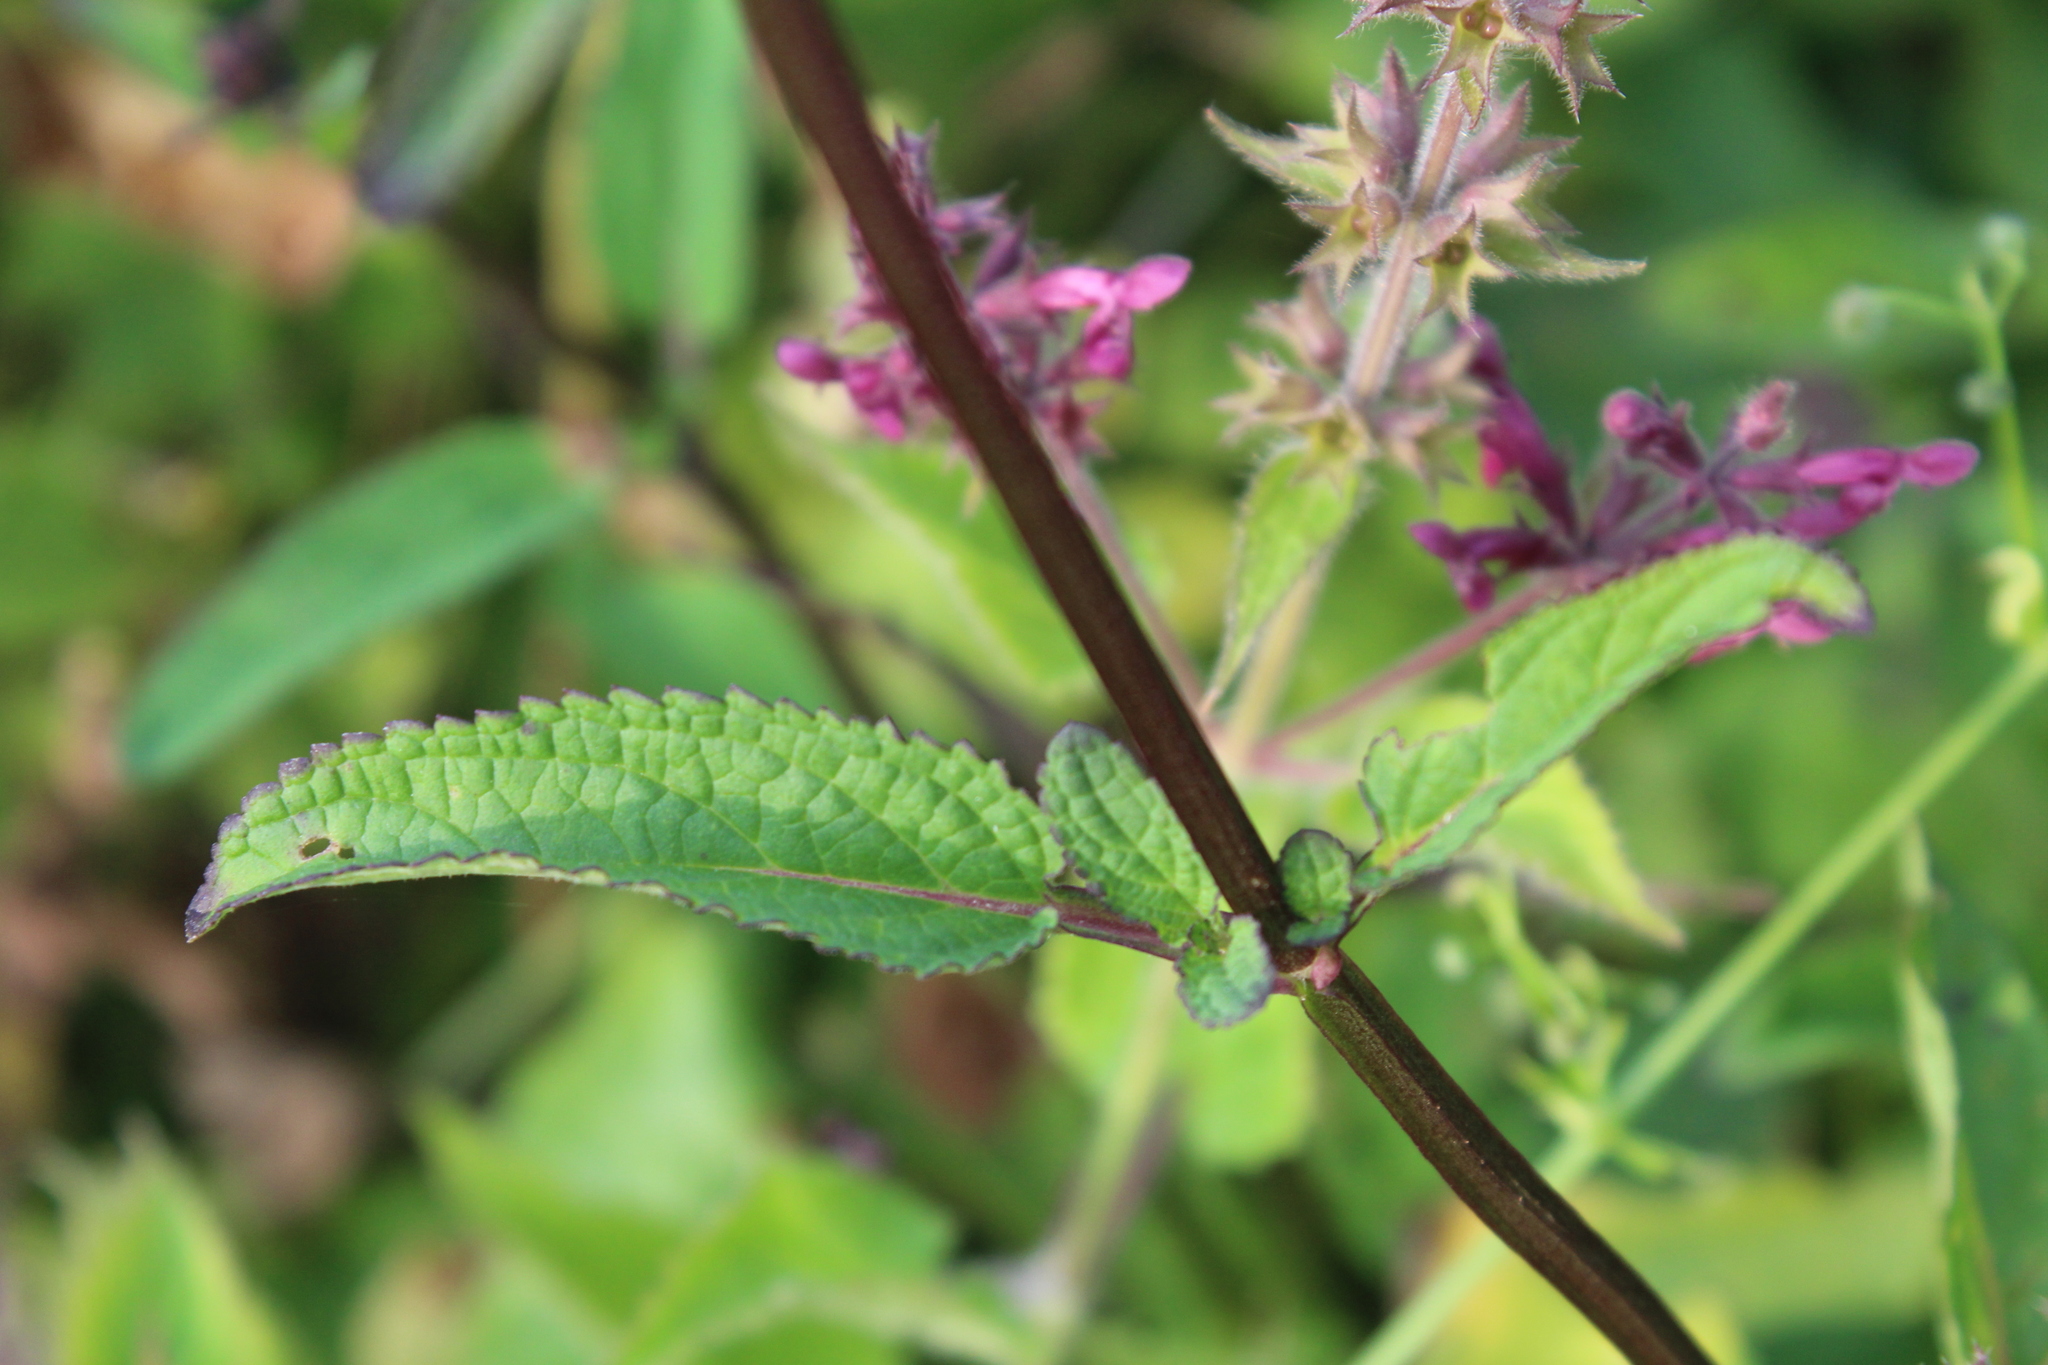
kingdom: Plantae
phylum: Tracheophyta
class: Magnoliopsida
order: Lamiales
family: Scrophulariaceae
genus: Scrophularia
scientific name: Scrophularia auriculata
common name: Water betony
